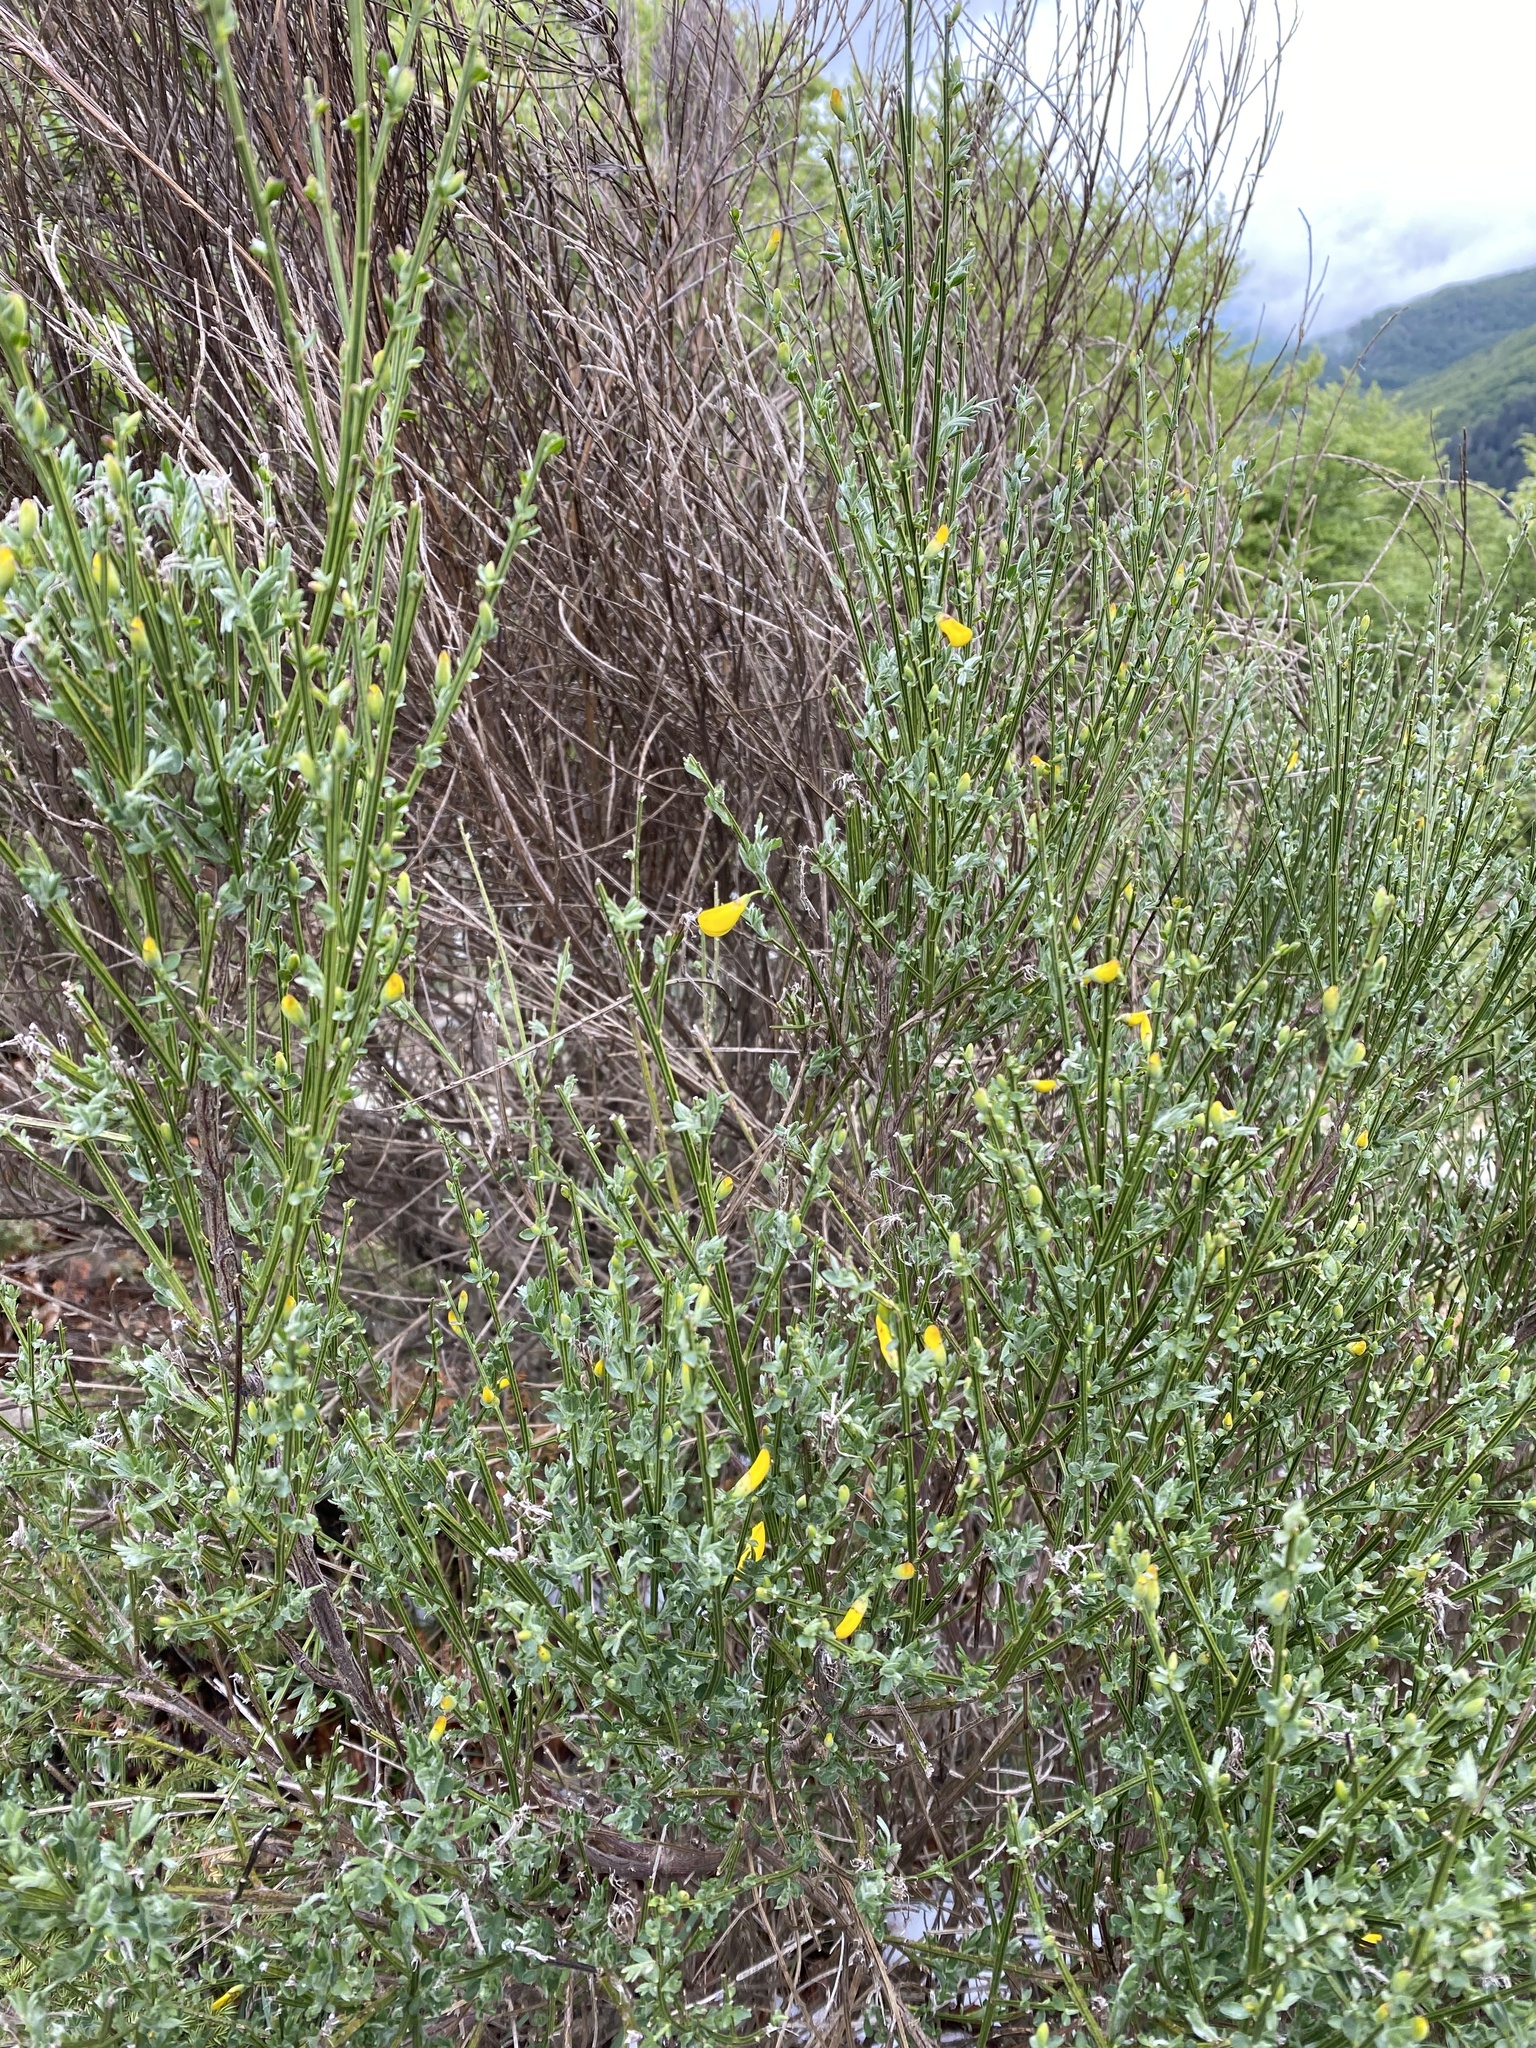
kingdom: Plantae
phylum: Tracheophyta
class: Magnoliopsida
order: Fabales
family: Fabaceae
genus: Cytisus
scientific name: Cytisus scoparius
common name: Scotch broom
